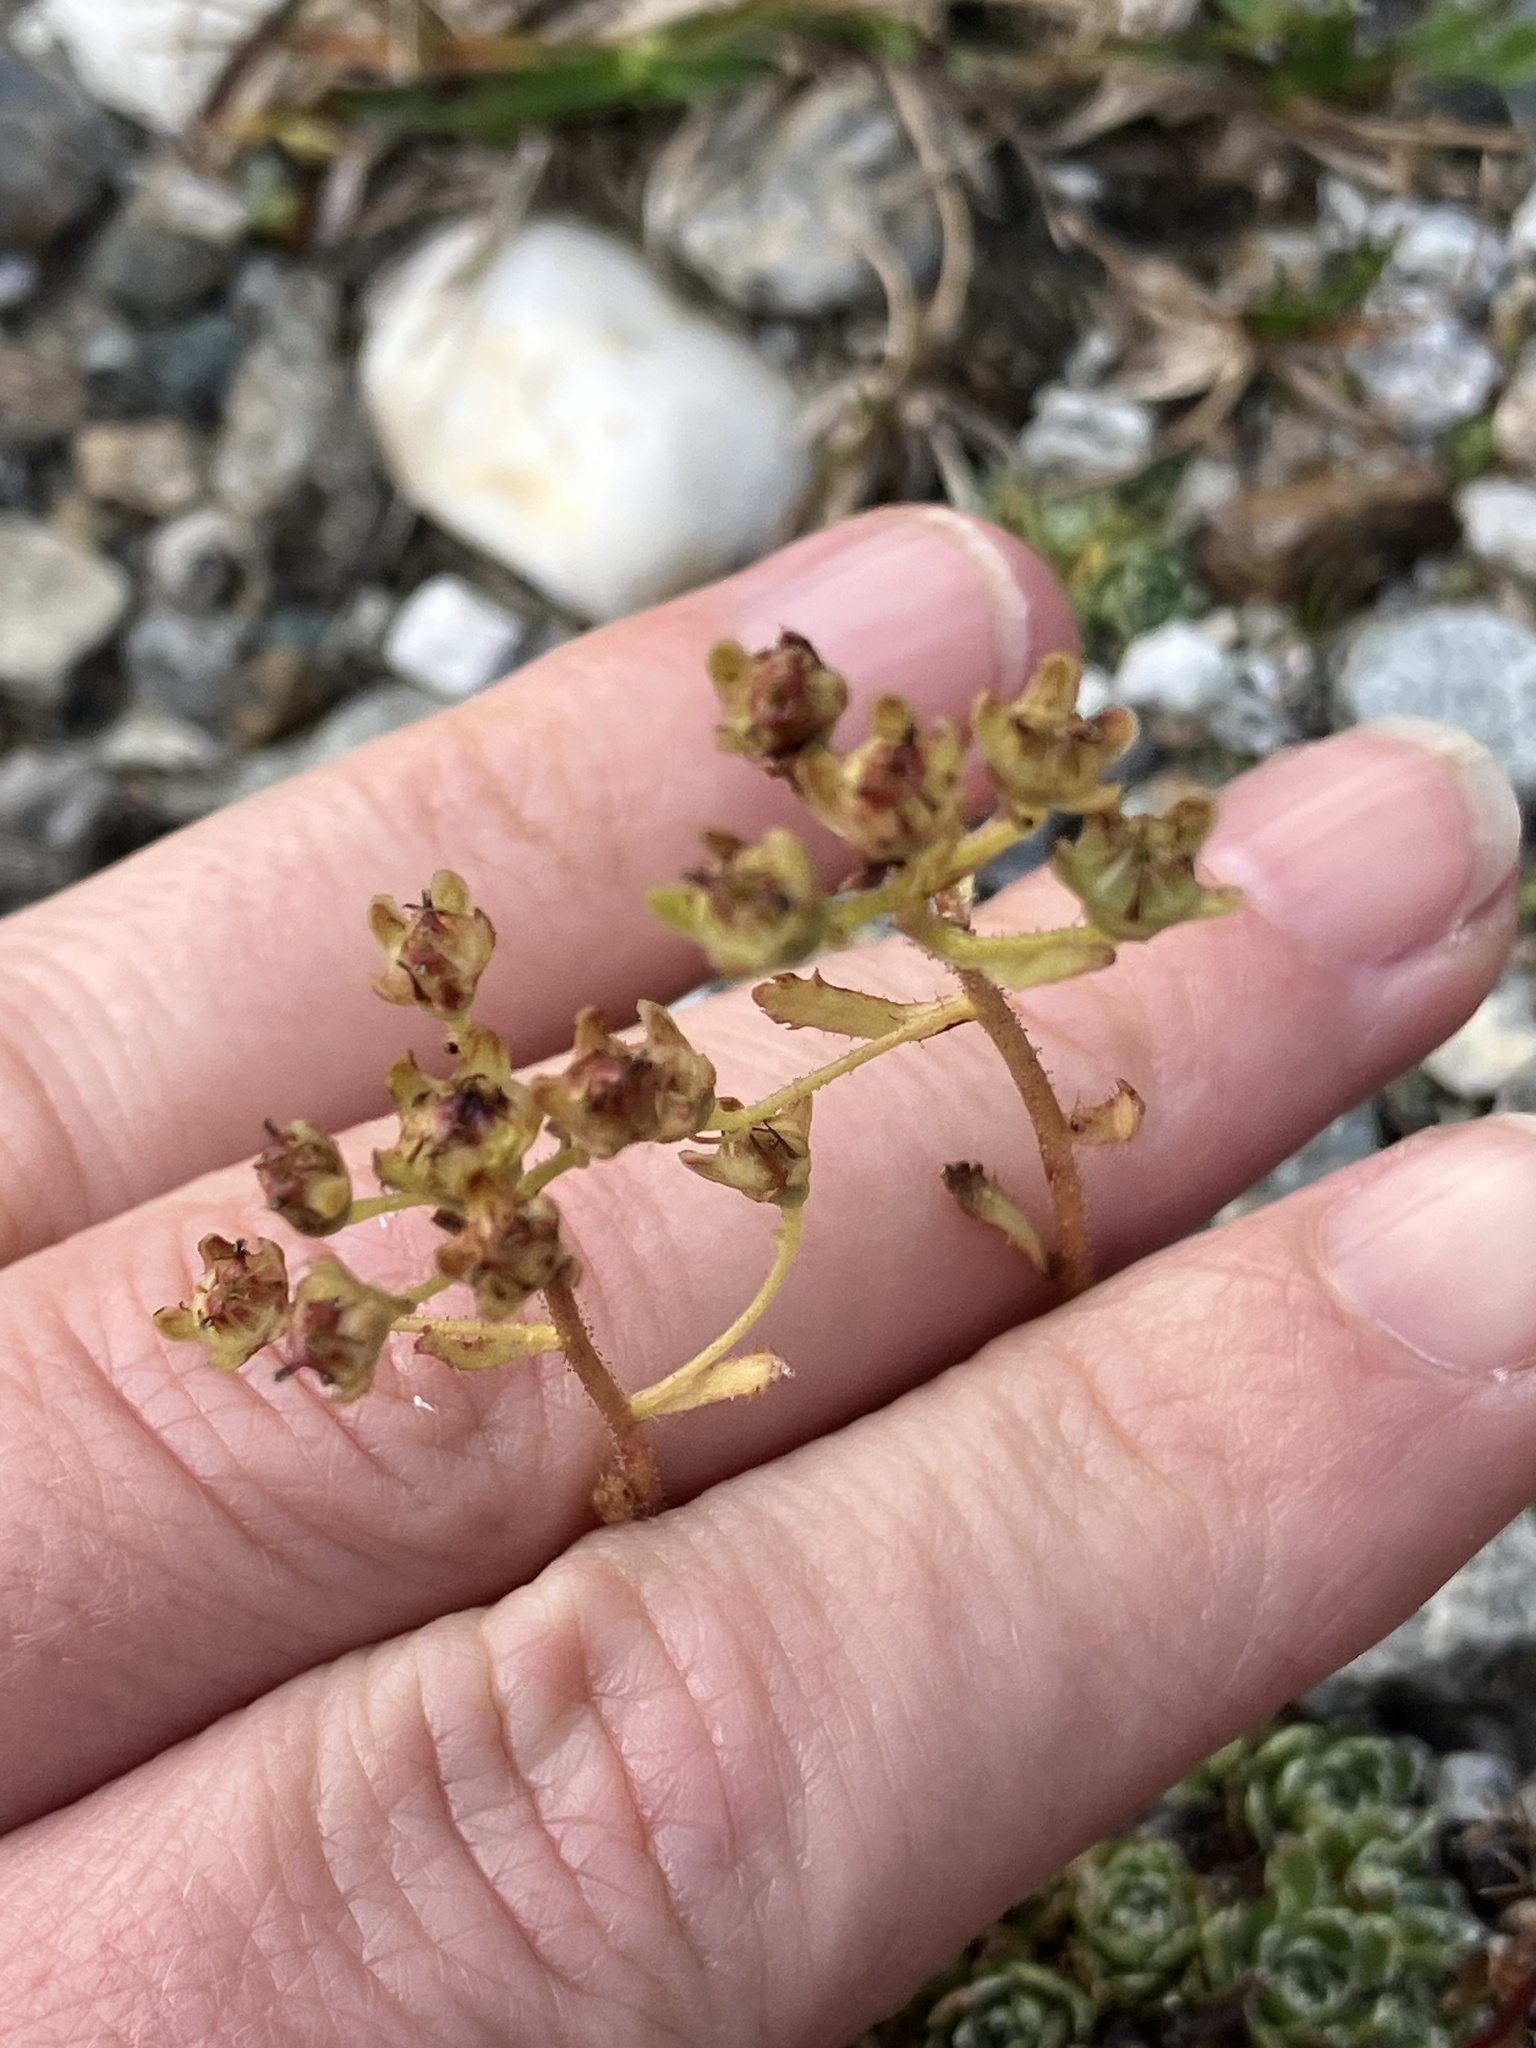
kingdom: Plantae
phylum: Tracheophyta
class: Magnoliopsida
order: Saxifragales
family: Saxifragaceae
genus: Saxifraga
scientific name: Saxifraga paniculata
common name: Livelong saxifrage
